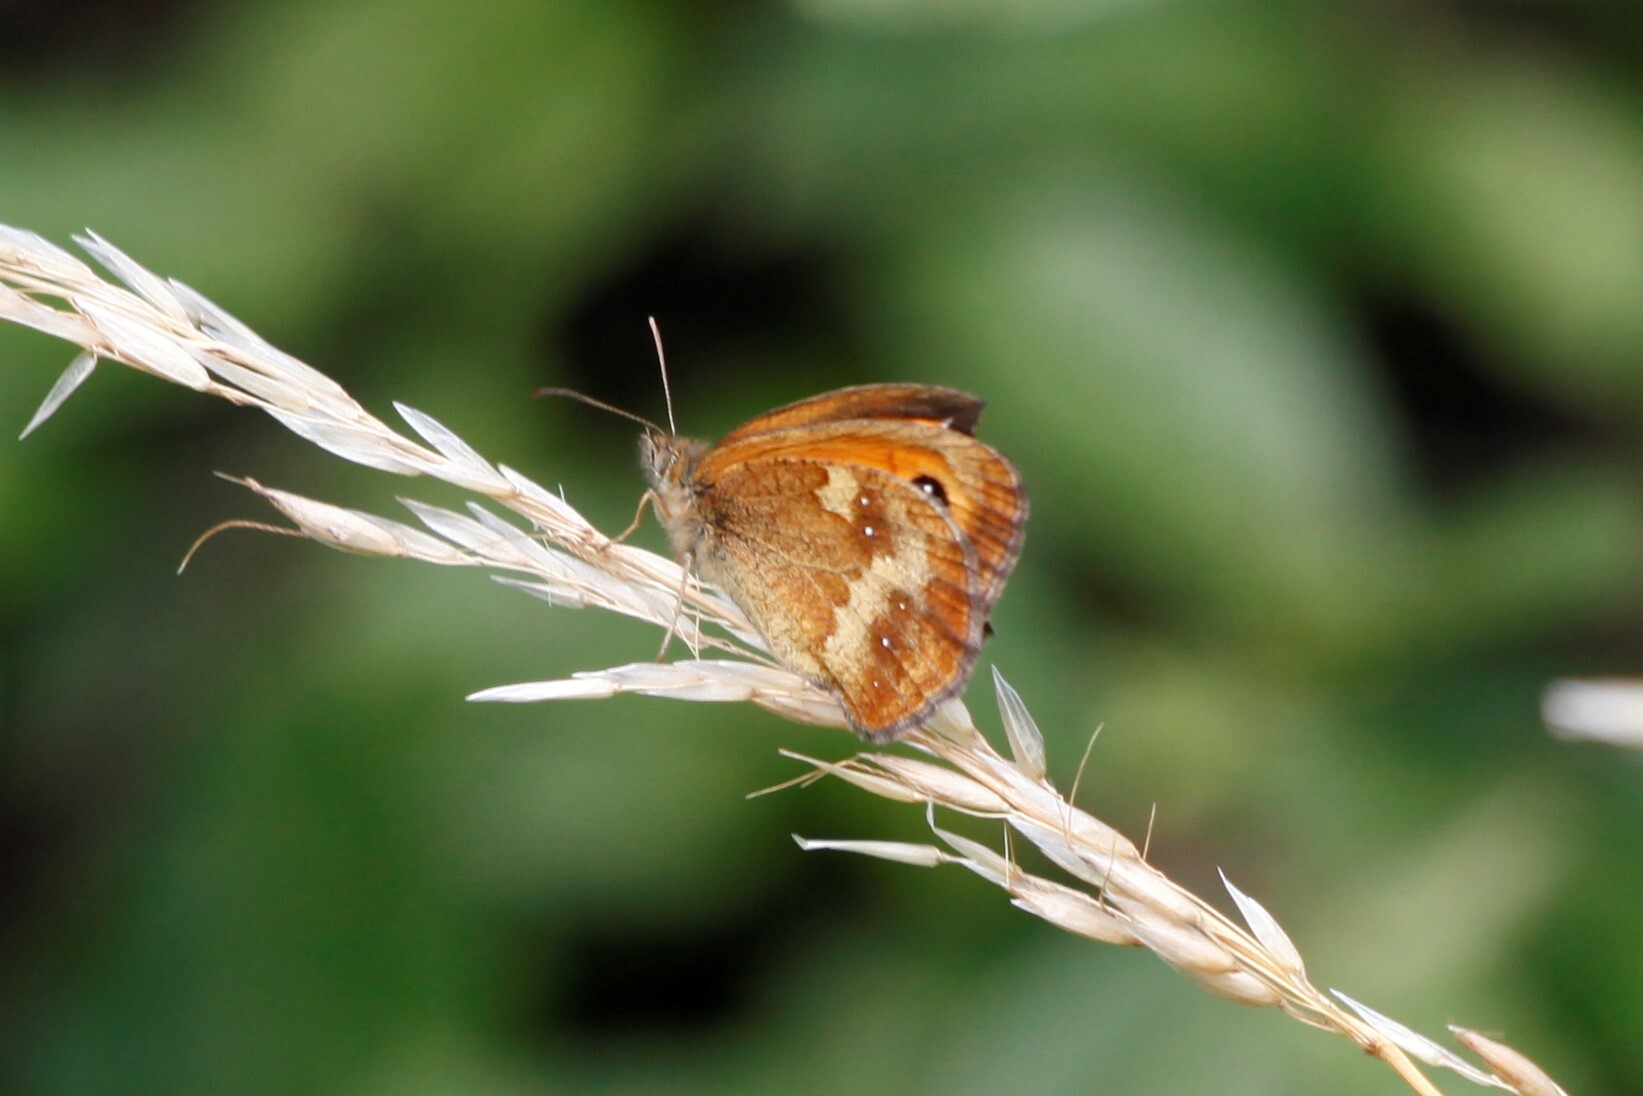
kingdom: Animalia
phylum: Arthropoda
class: Insecta
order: Lepidoptera
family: Nymphalidae
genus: Pyronia
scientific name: Pyronia tithonus
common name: Gatekeeper
